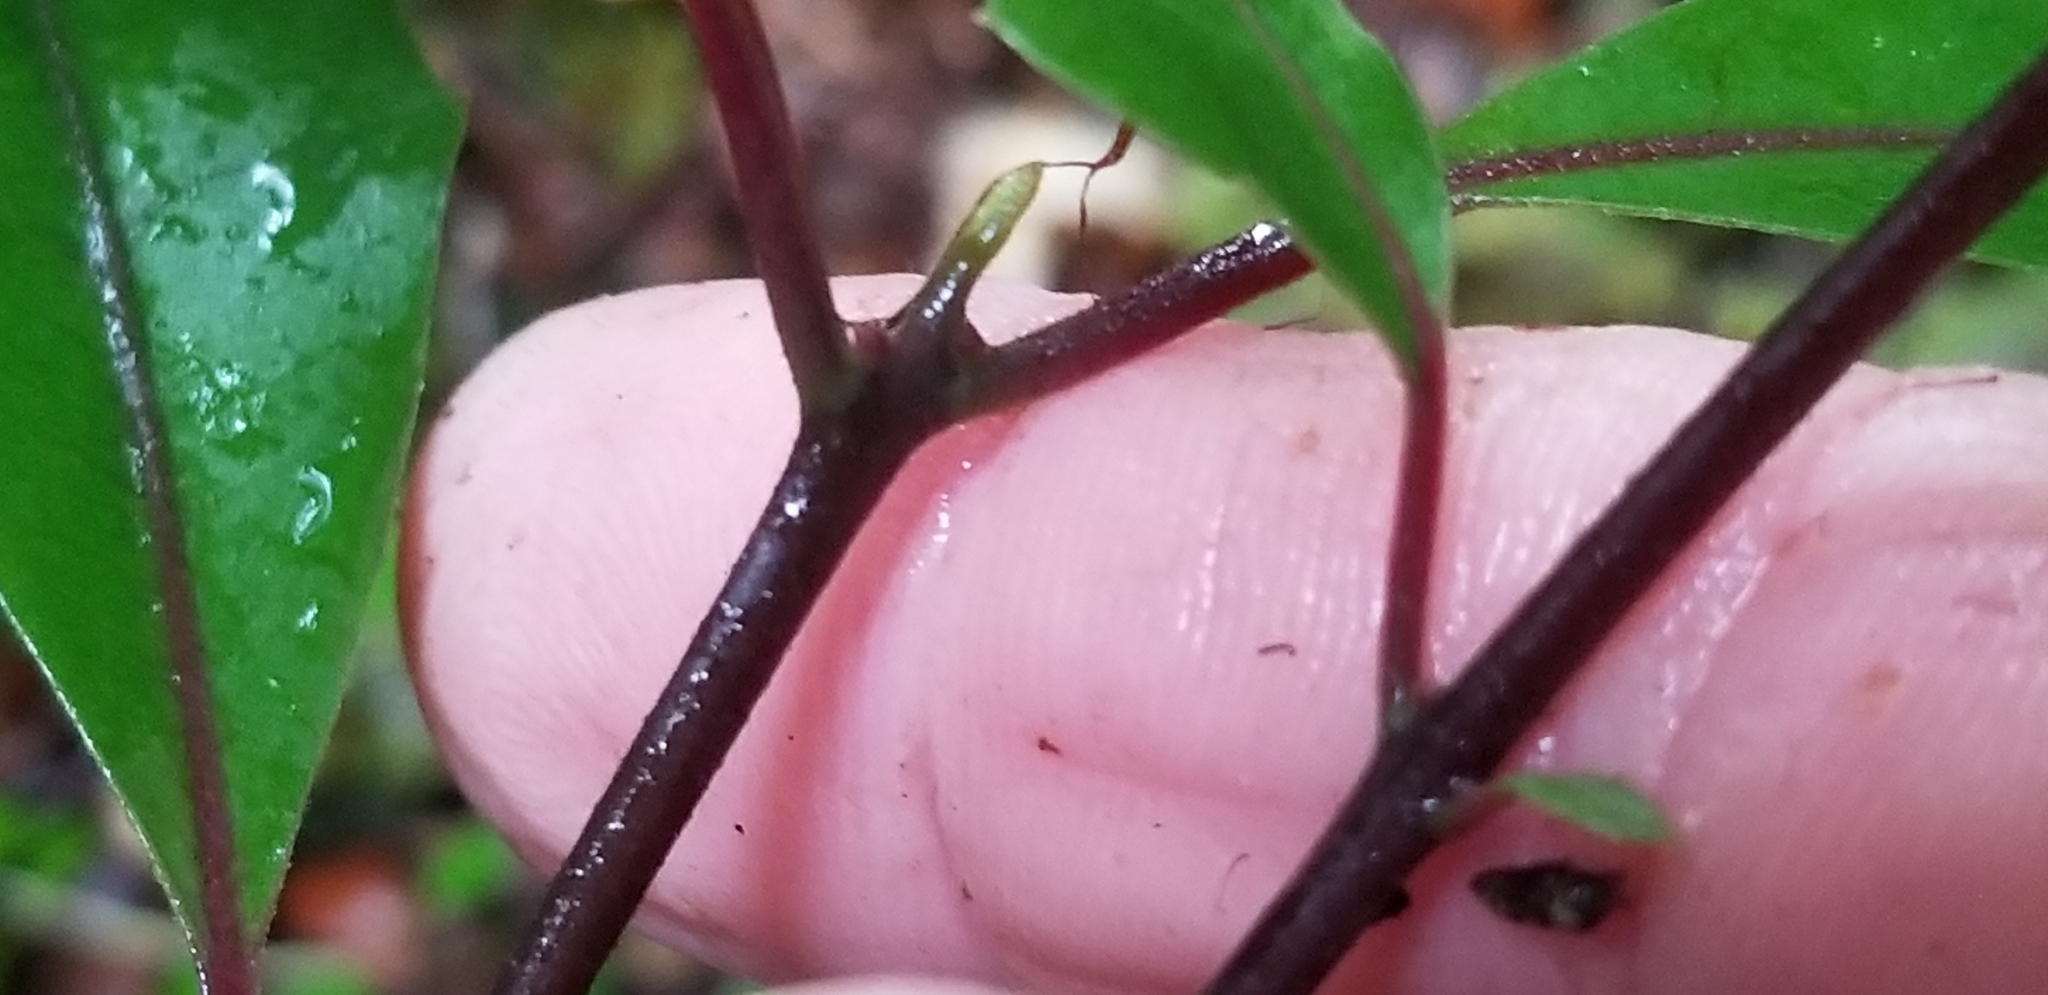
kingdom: Plantae
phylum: Tracheophyta
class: Magnoliopsida
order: Laurales
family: Monimiaceae
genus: Hedycarya
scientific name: Hedycarya arborea
